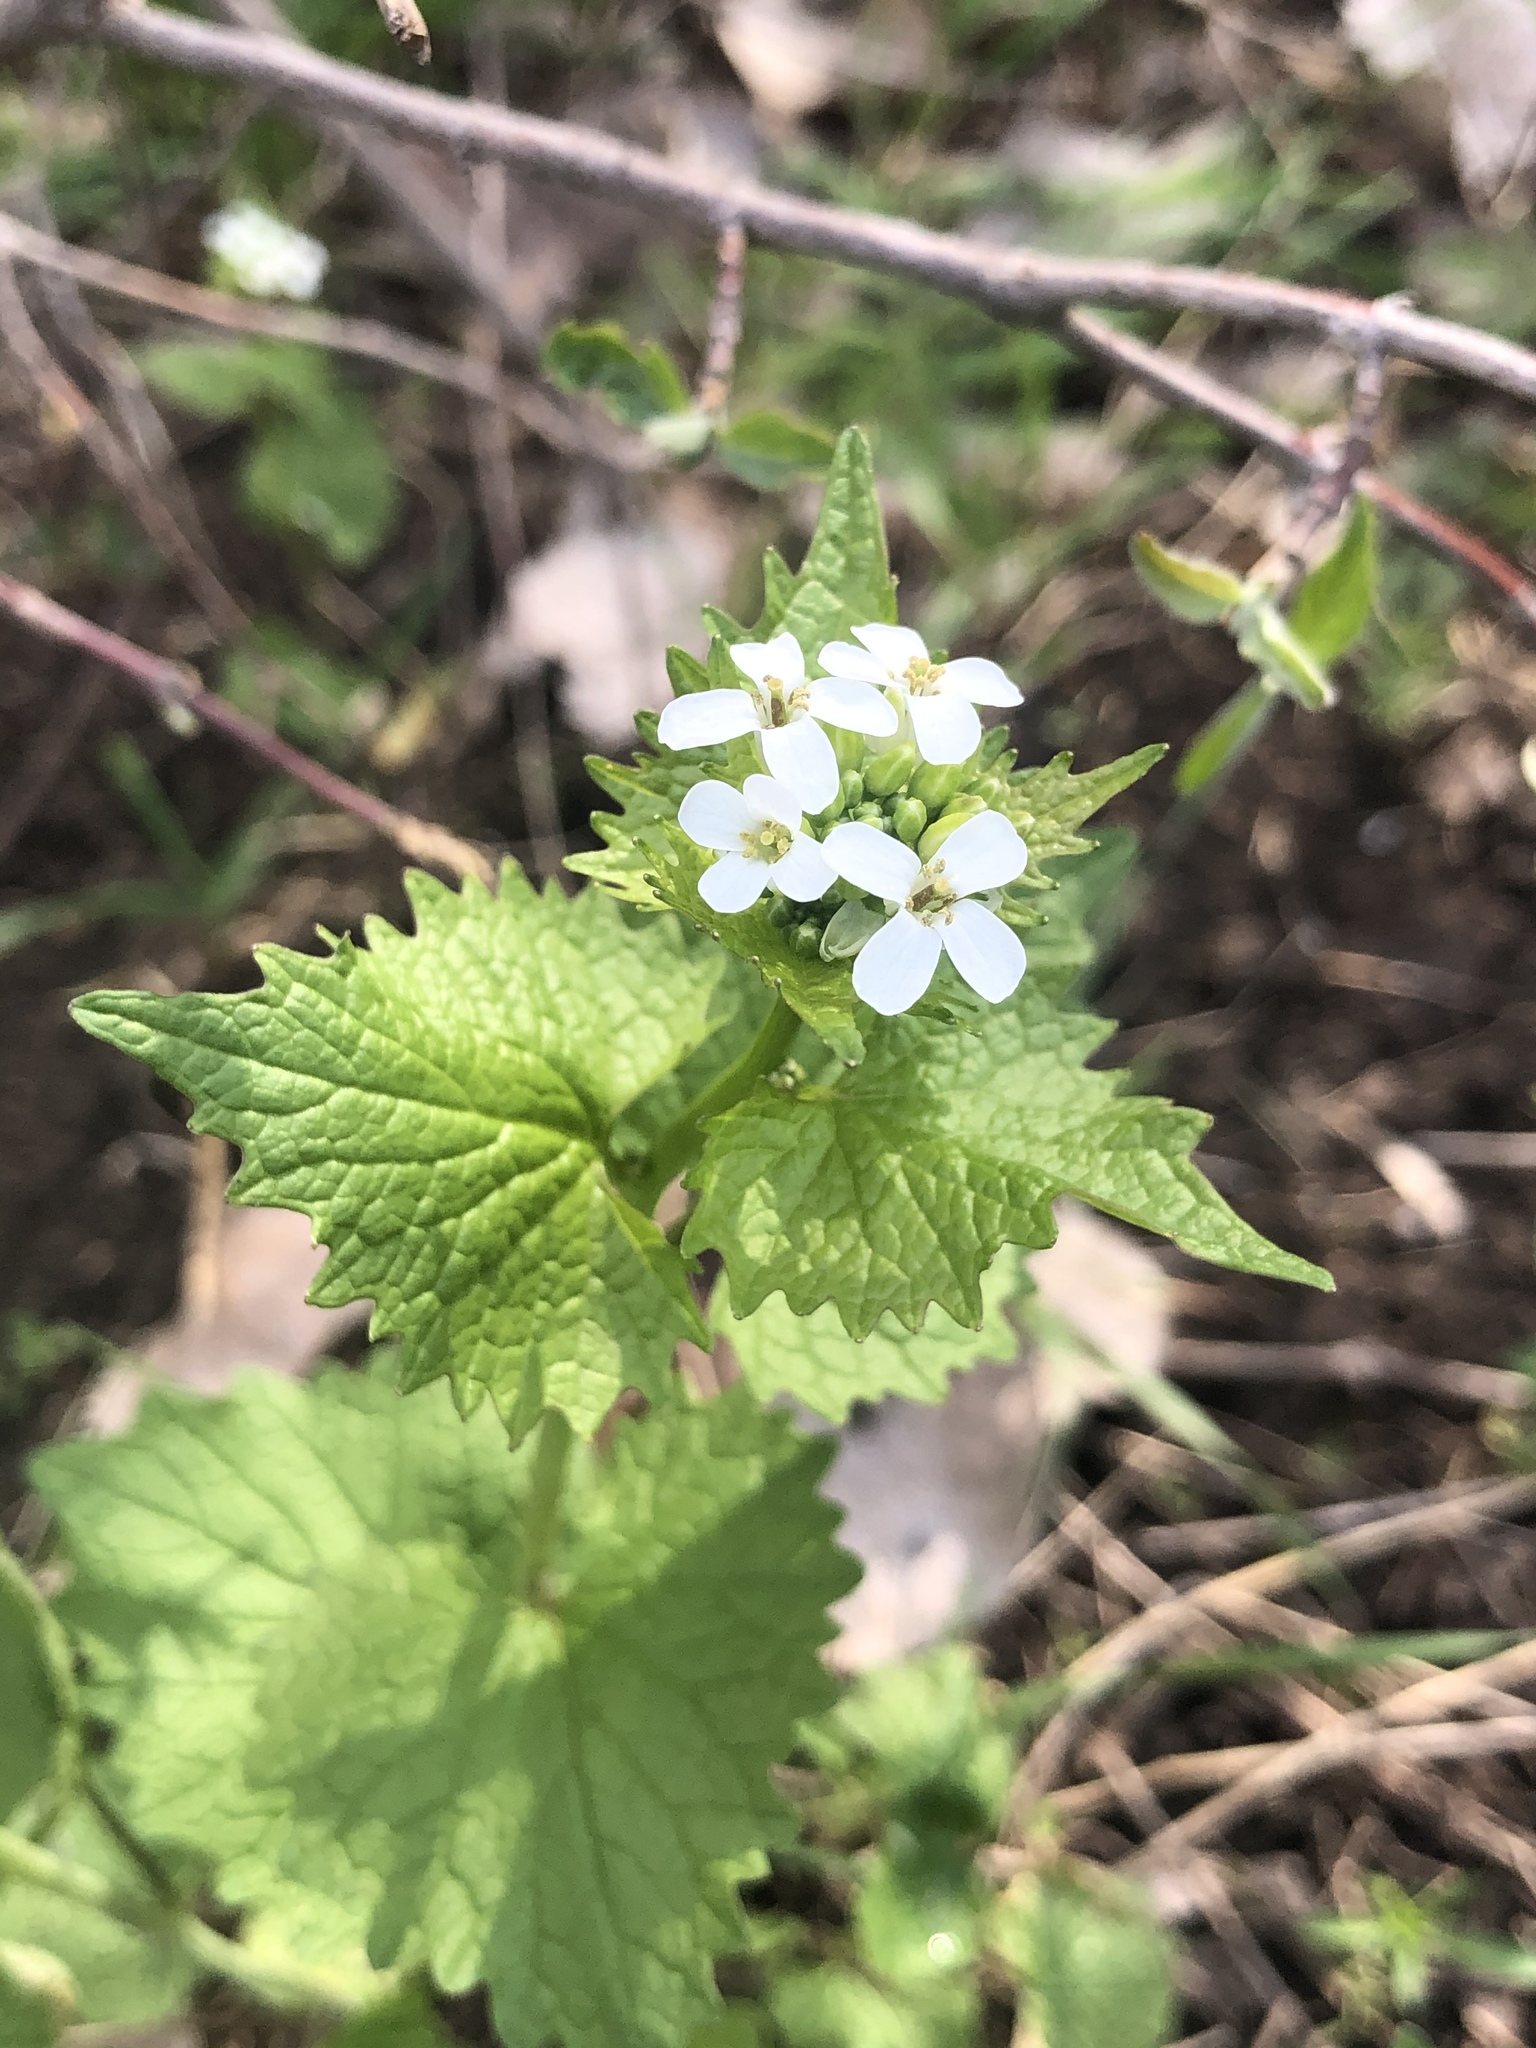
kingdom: Plantae
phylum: Tracheophyta
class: Magnoliopsida
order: Brassicales
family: Brassicaceae
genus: Alliaria
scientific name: Alliaria petiolata
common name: Garlic mustard
